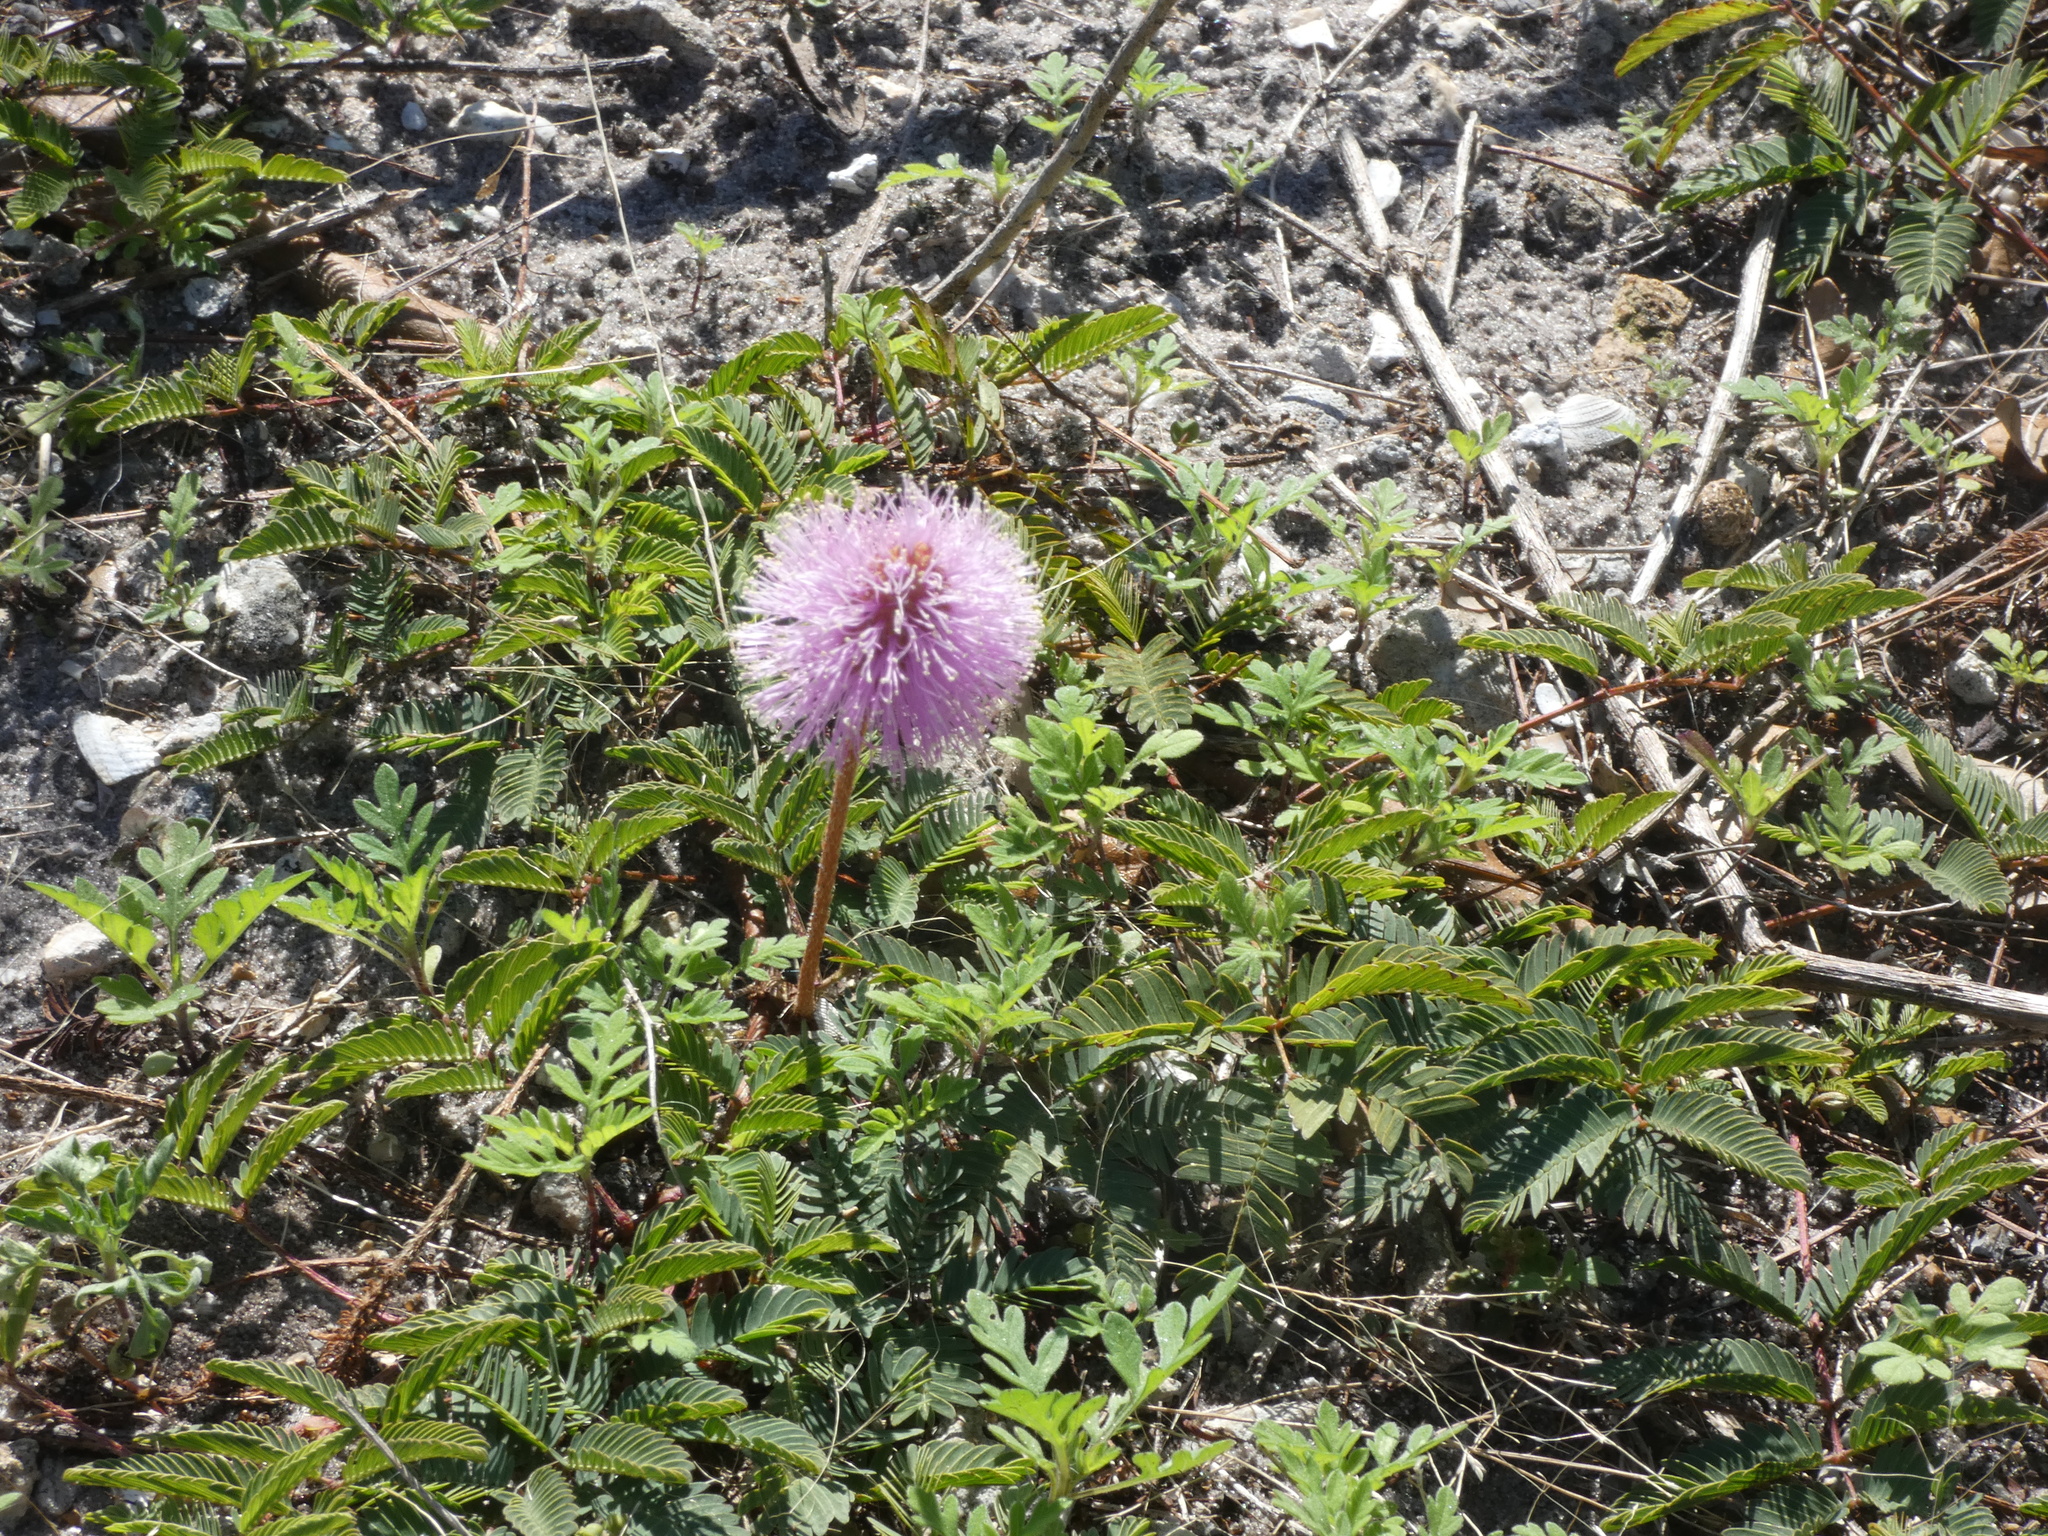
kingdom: Plantae
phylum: Tracheophyta
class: Magnoliopsida
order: Fabales
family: Fabaceae
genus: Mimosa
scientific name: Mimosa strigillosa
